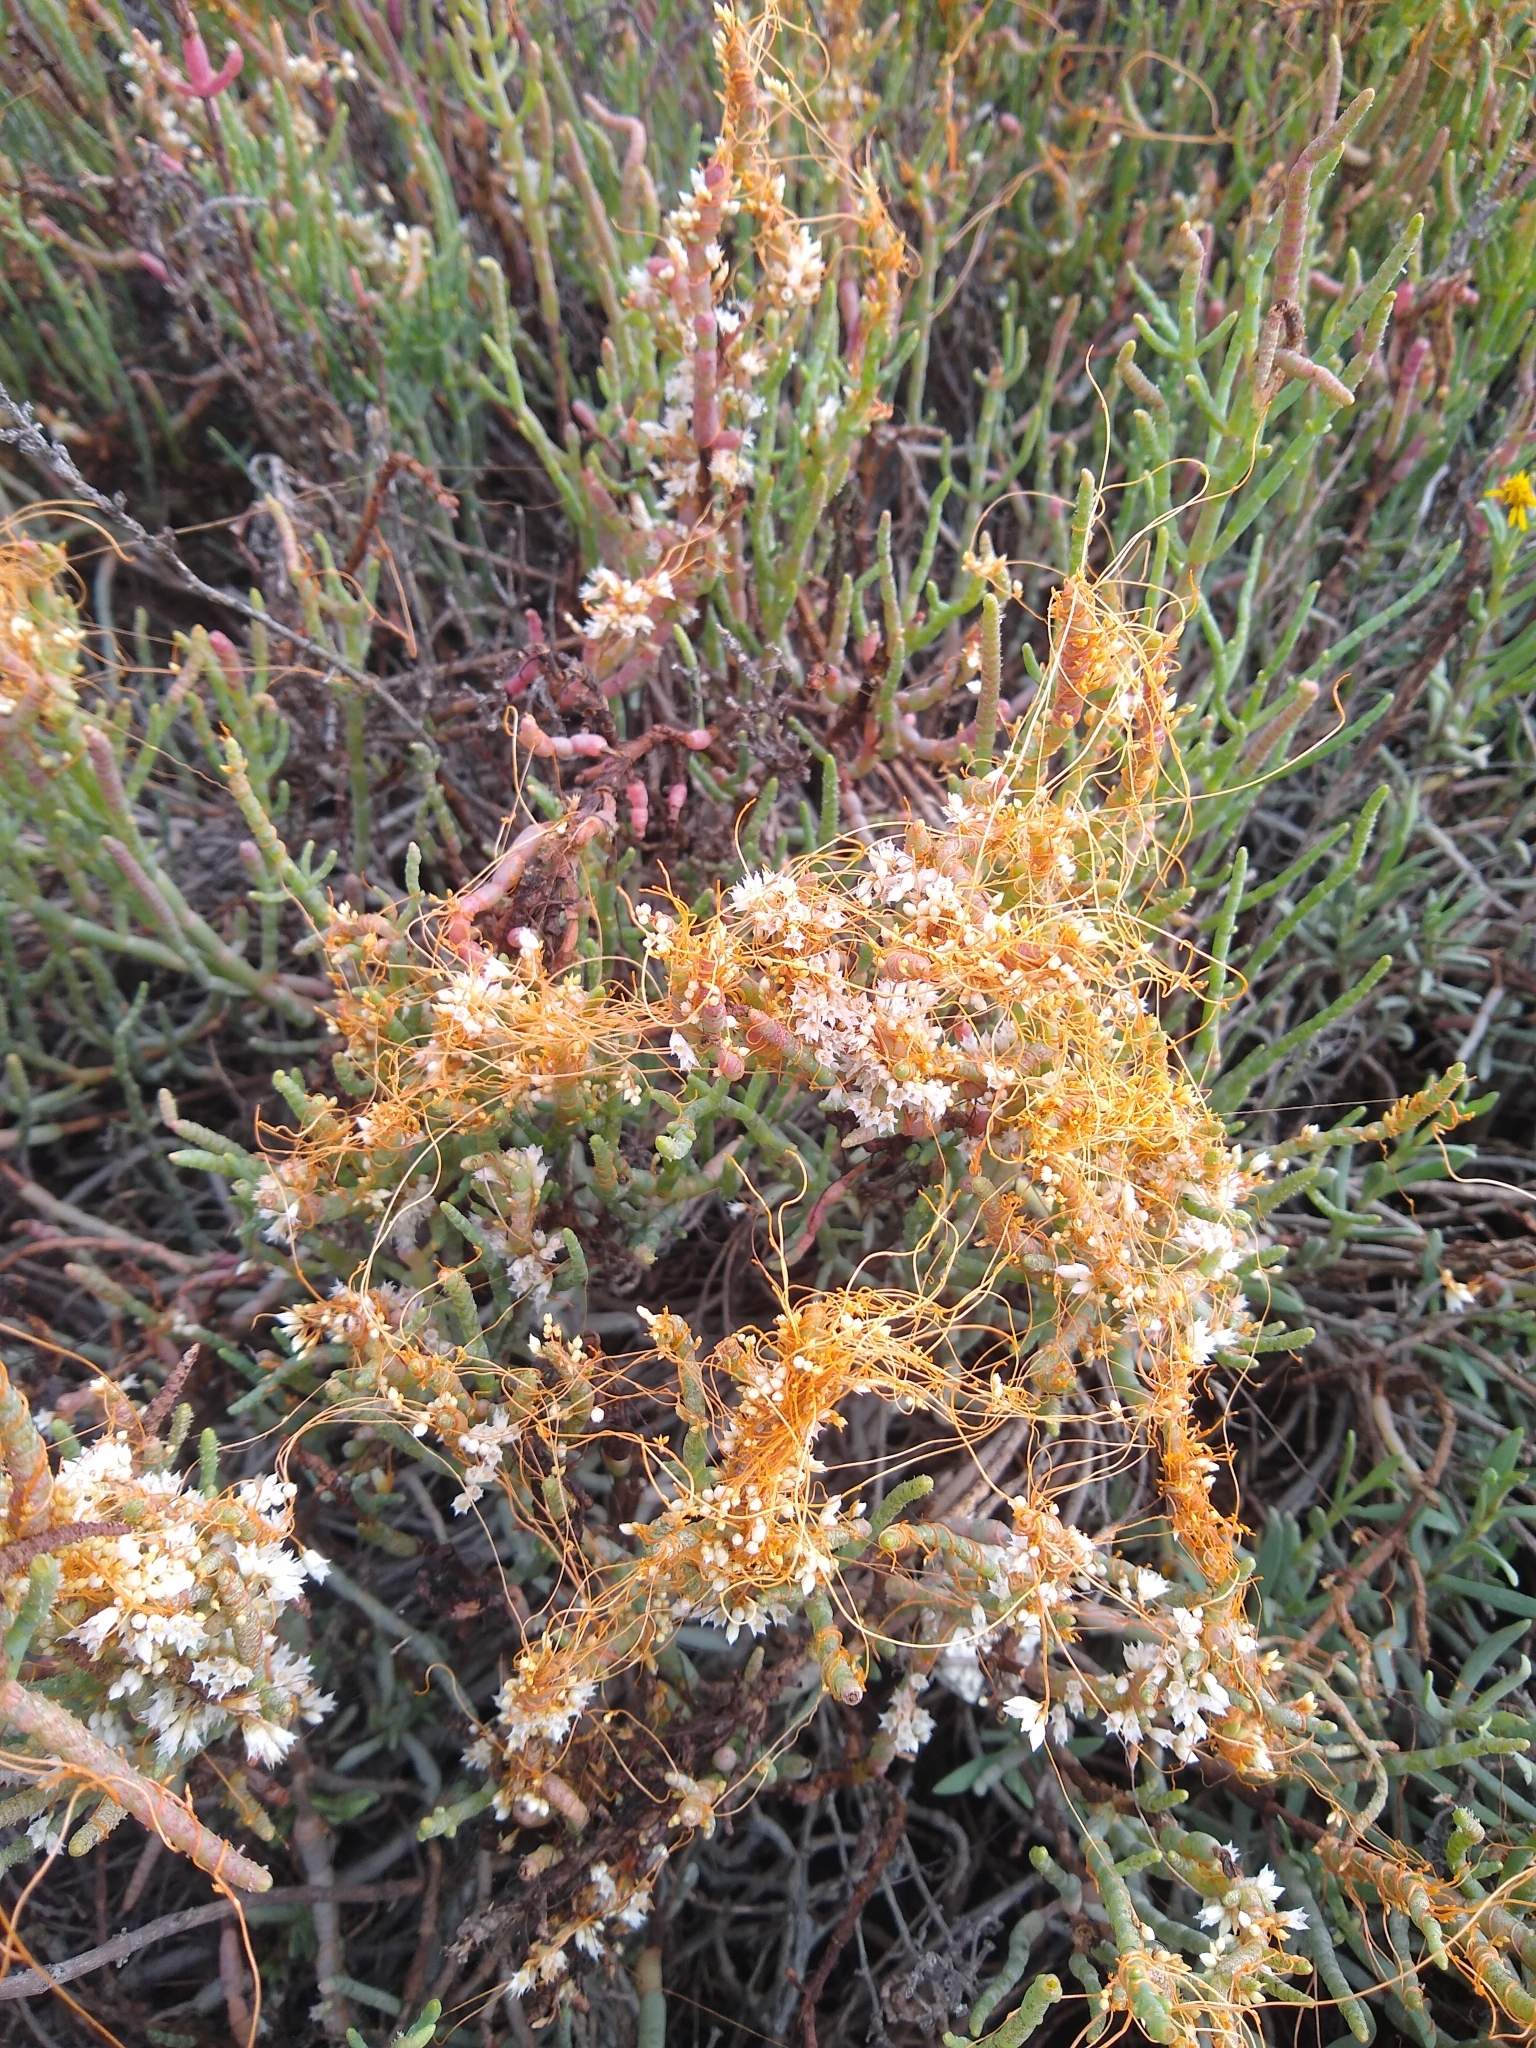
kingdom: Plantae
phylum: Tracheophyta
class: Magnoliopsida
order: Solanales
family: Convolvulaceae
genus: Cuscuta
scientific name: Cuscuta pacifica
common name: Large saltmarsh dodder
